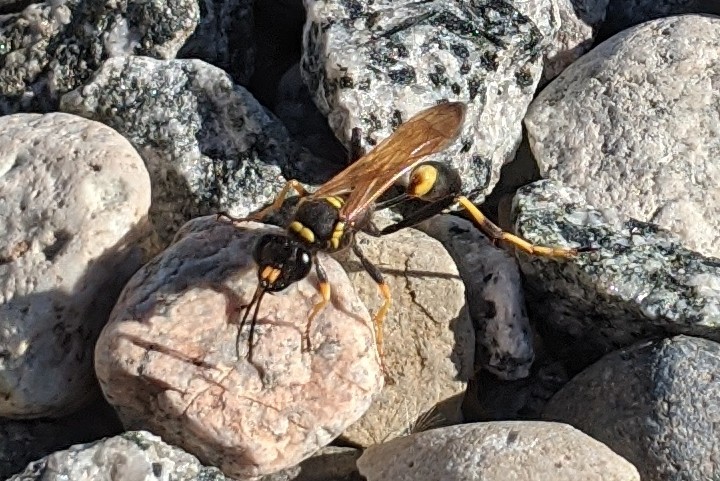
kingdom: Animalia
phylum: Arthropoda
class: Insecta
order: Hymenoptera
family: Sphecidae
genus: Sceliphron
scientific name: Sceliphron caementarium
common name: Mud dauber
